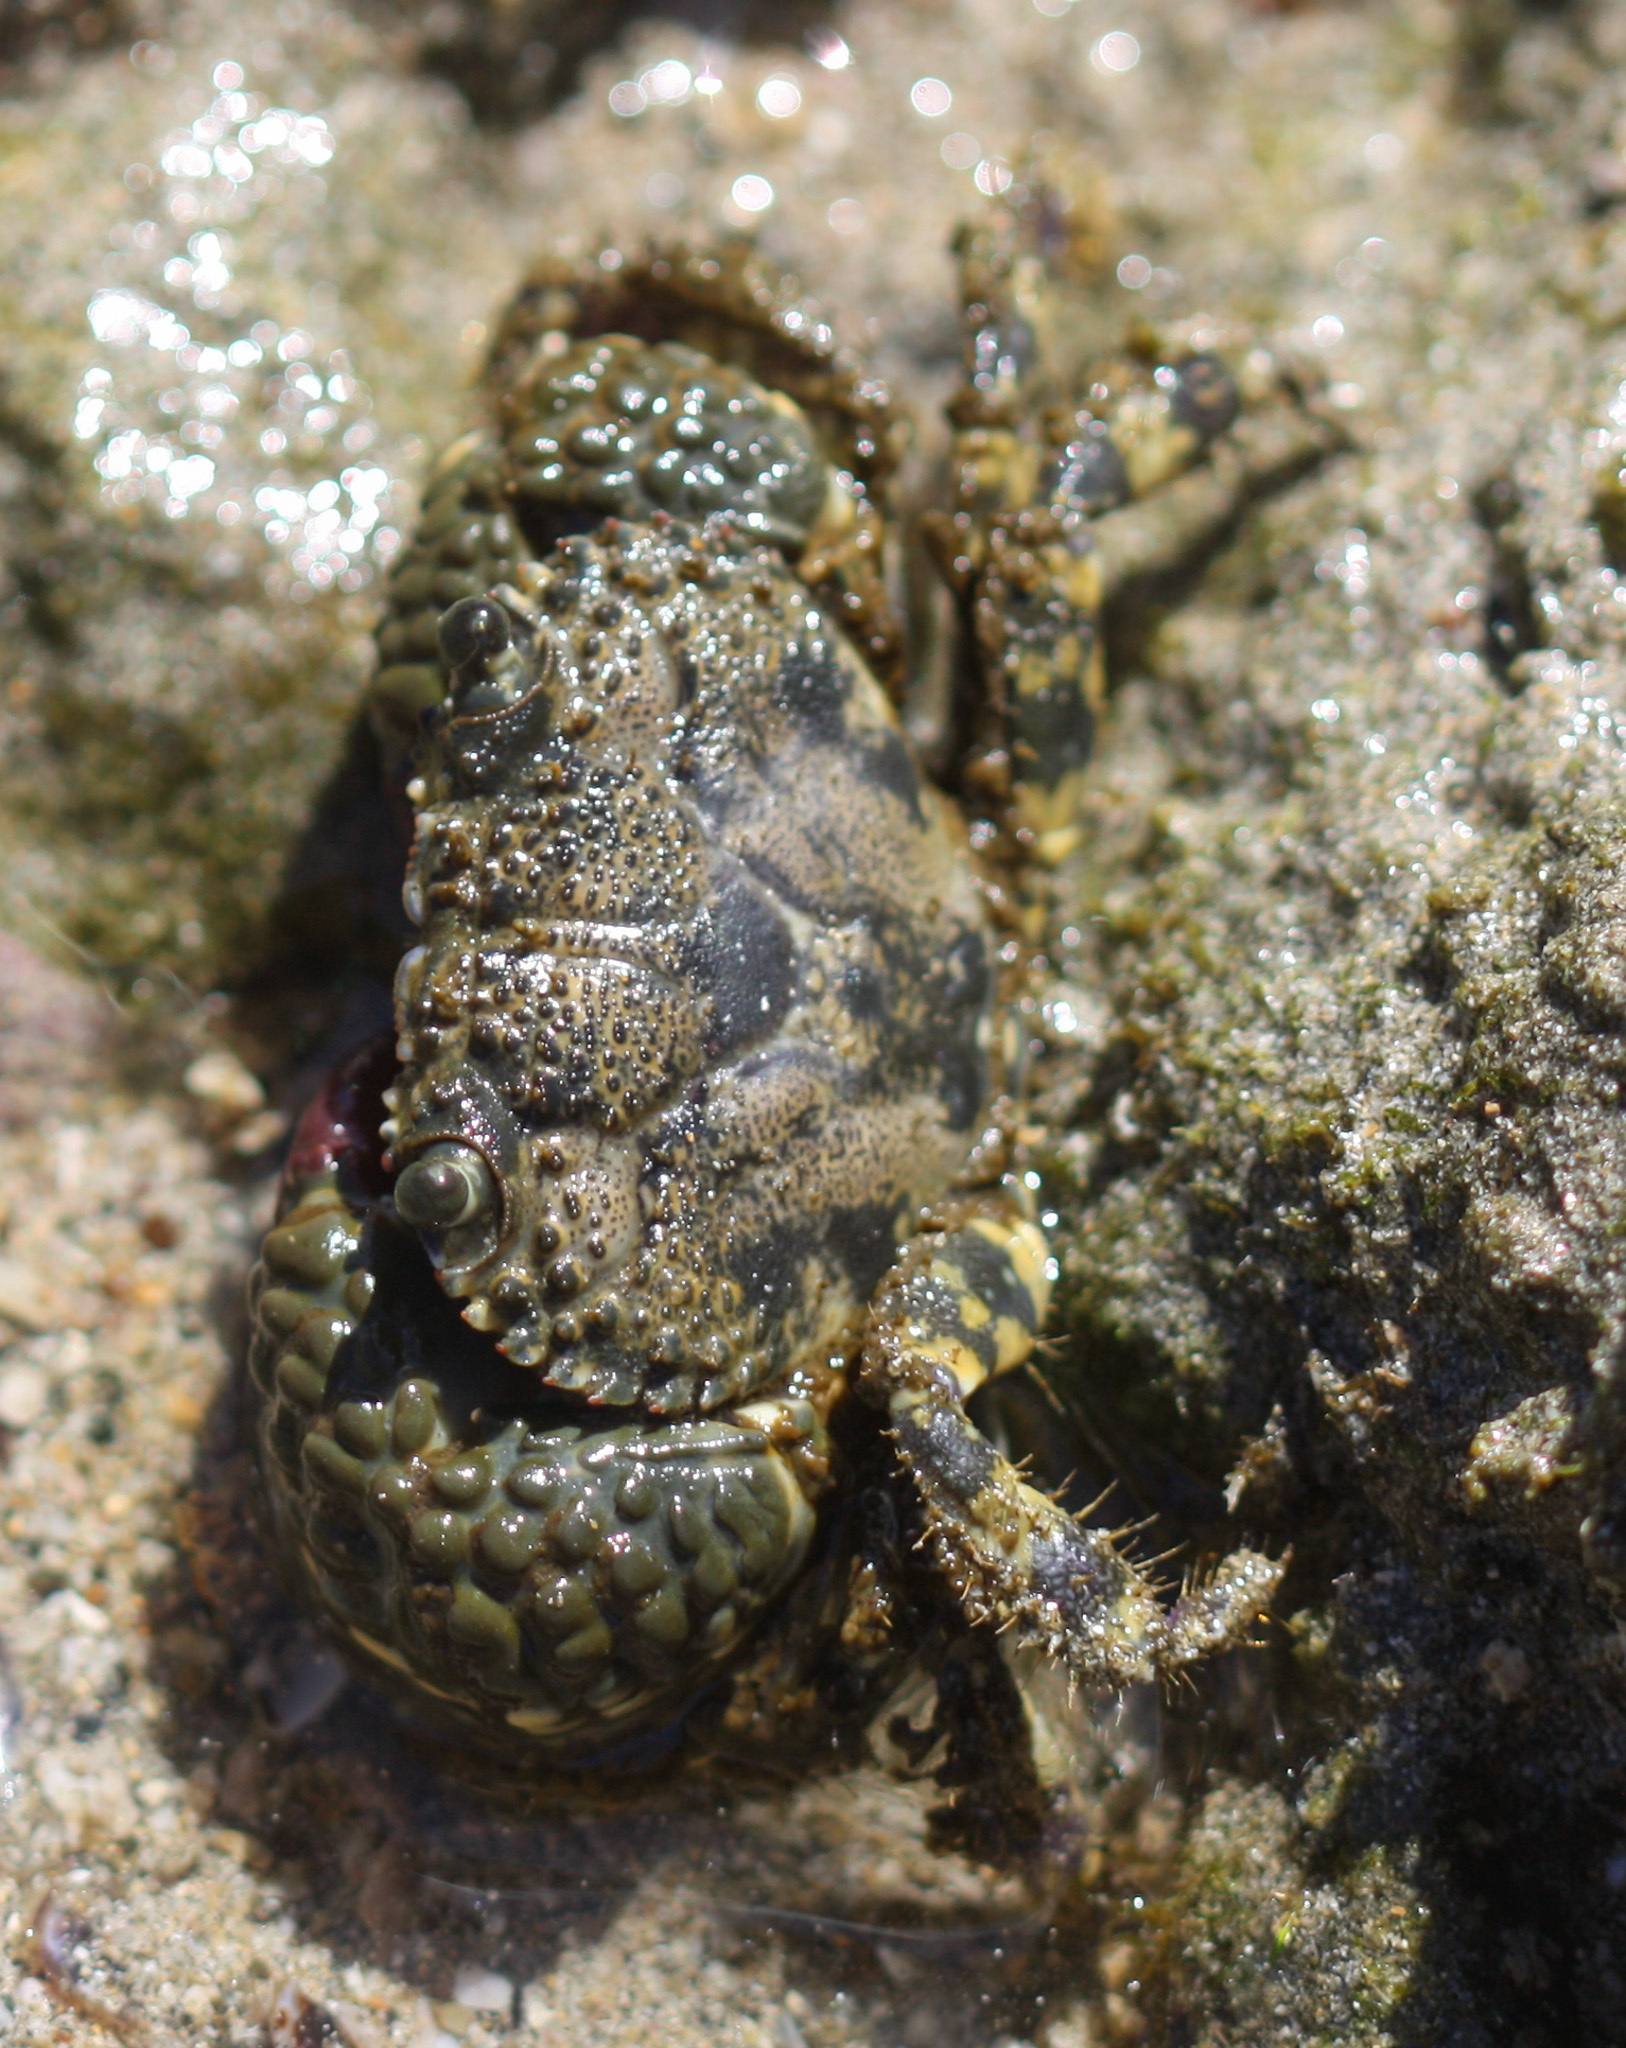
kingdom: Animalia
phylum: Arthropoda
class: Malacostraca
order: Decapoda
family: Eriphiidae
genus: Eriphia
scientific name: Eriphia squamata
